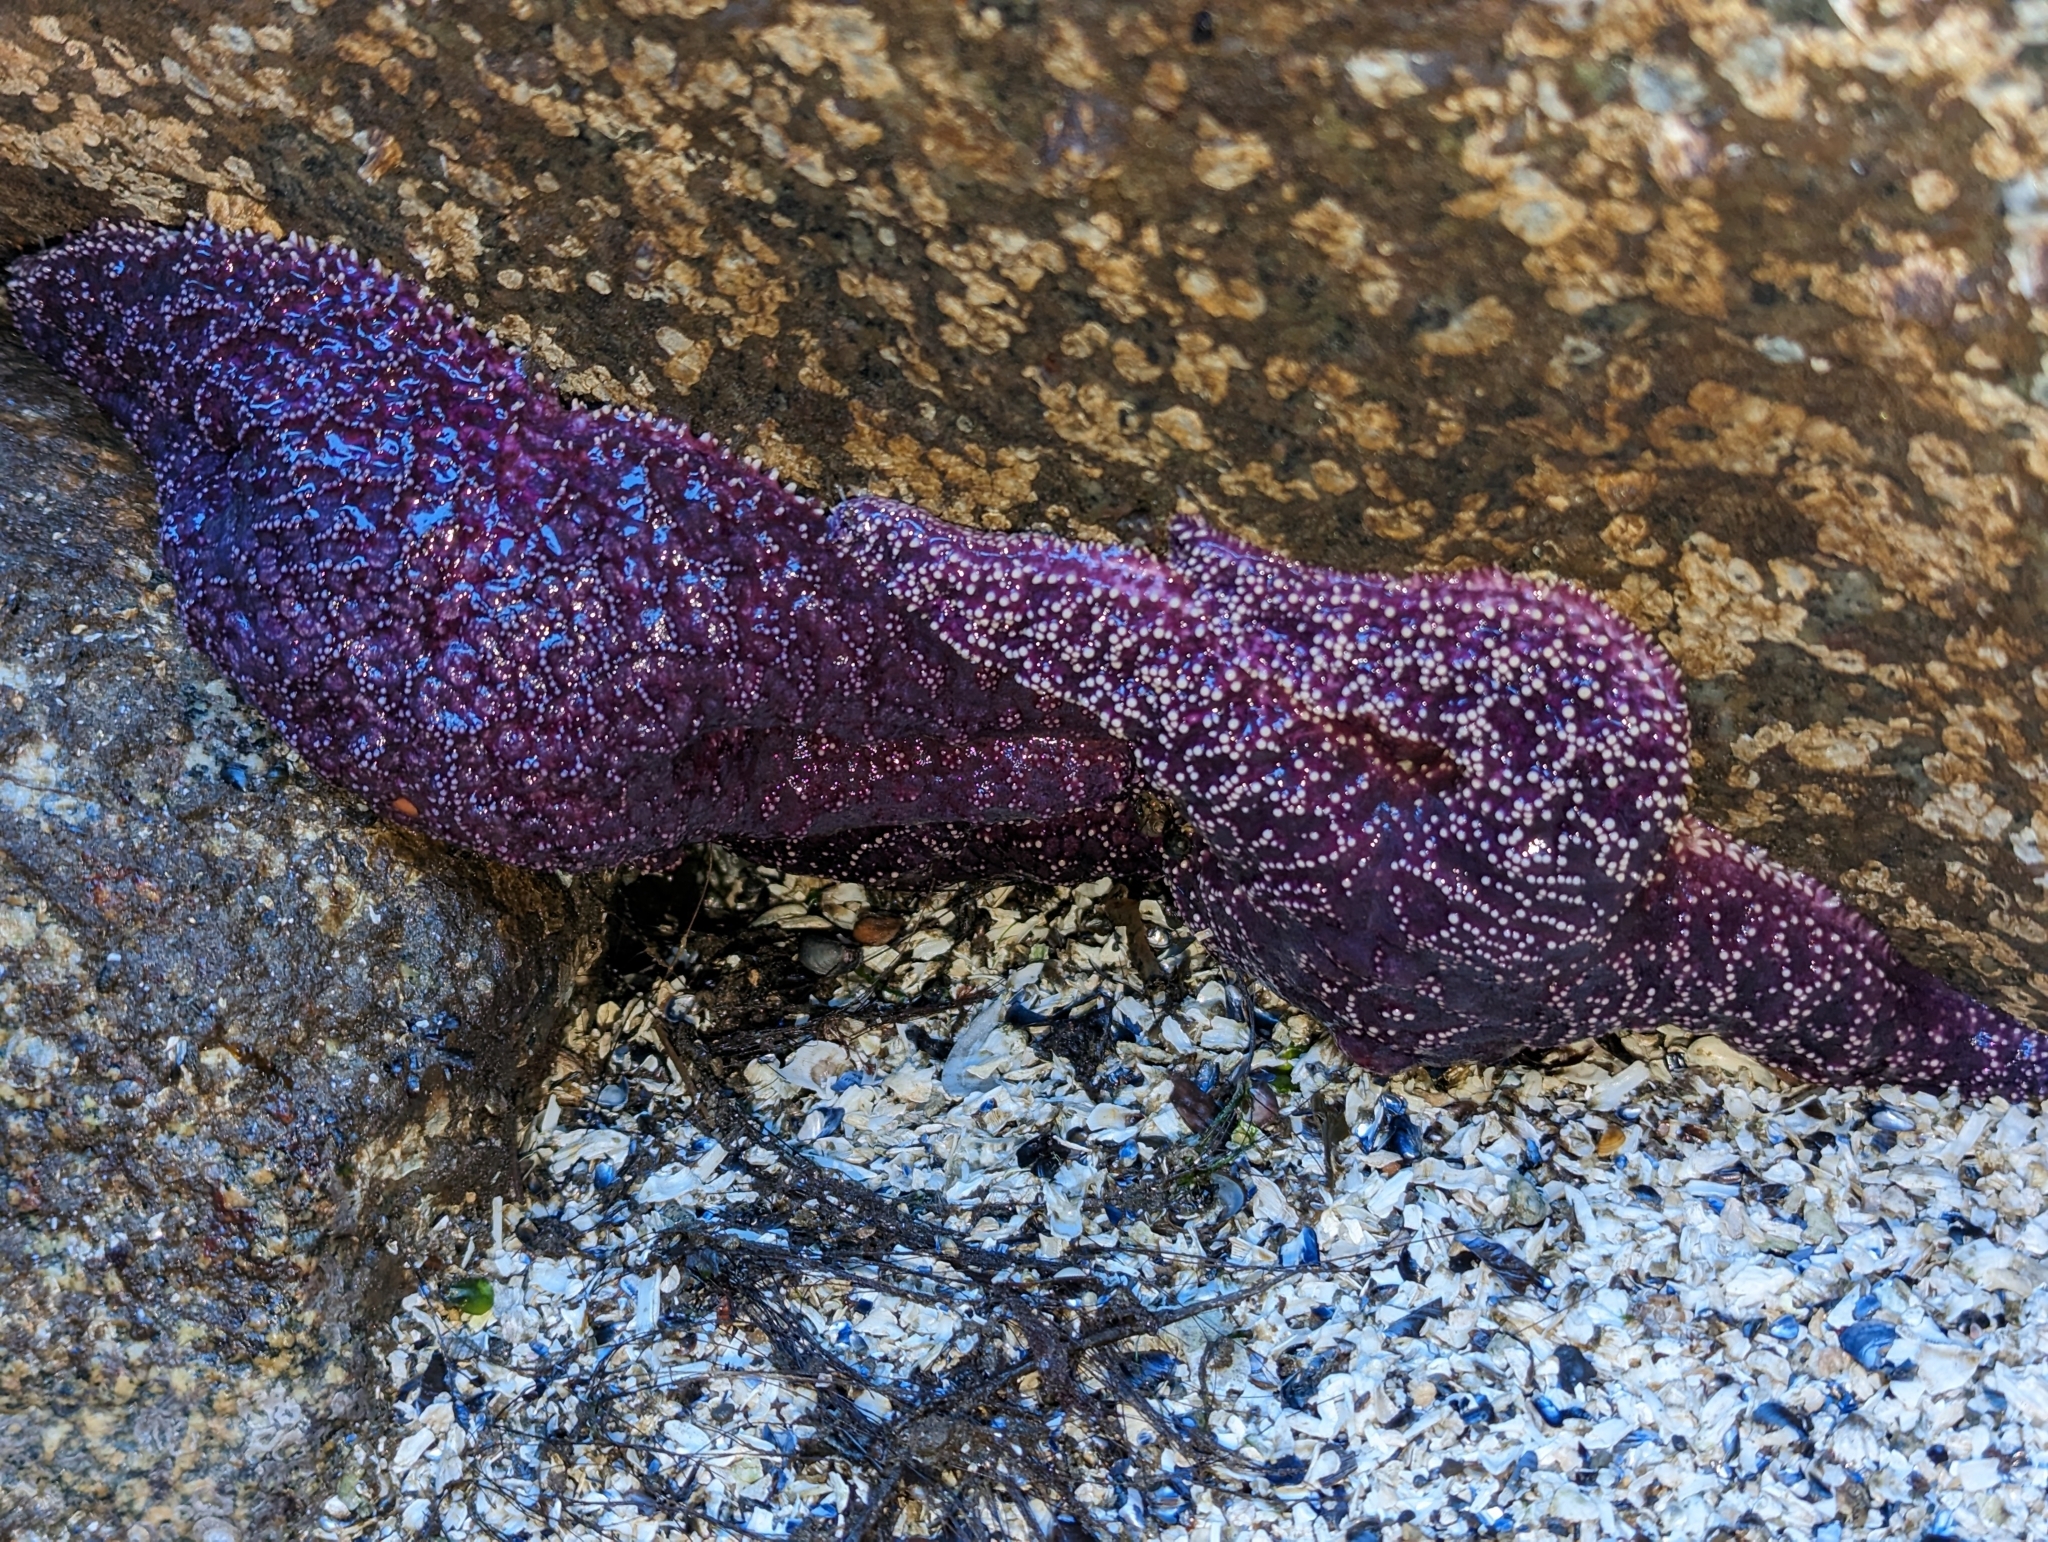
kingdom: Animalia
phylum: Echinodermata
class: Asteroidea
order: Forcipulatida
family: Asteriidae
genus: Pisaster
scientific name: Pisaster ochraceus
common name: Ochre stars
